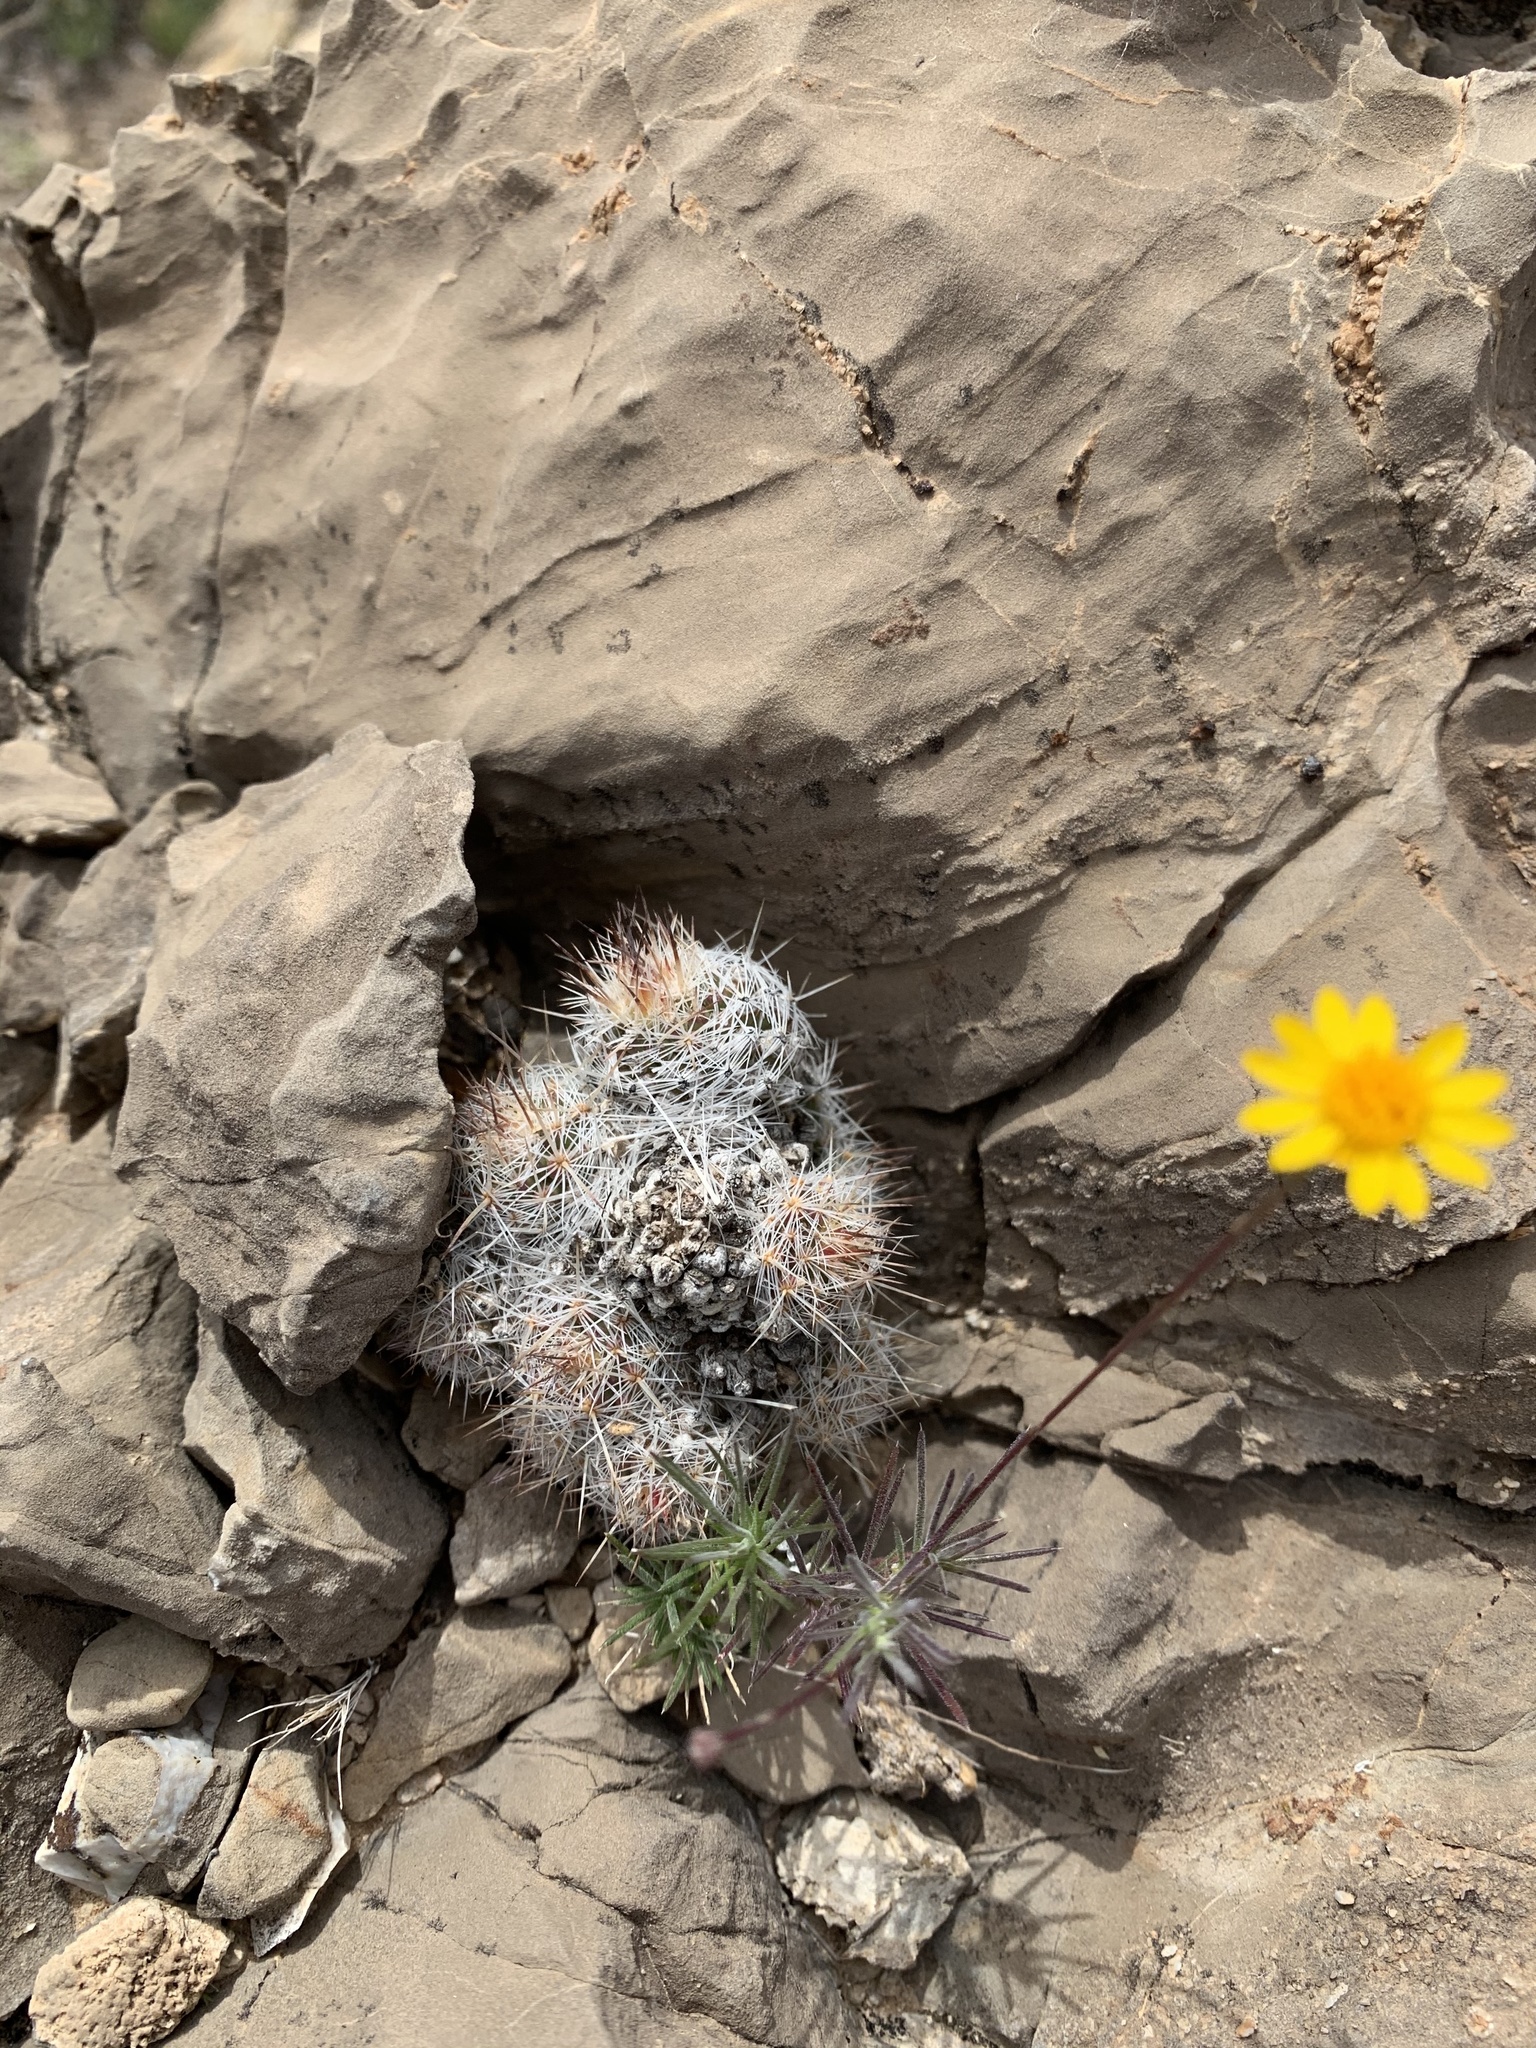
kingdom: Plantae
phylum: Tracheophyta
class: Magnoliopsida
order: Caryophyllales
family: Cactaceae
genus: Pelecyphora
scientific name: Pelecyphora tuberculosa
